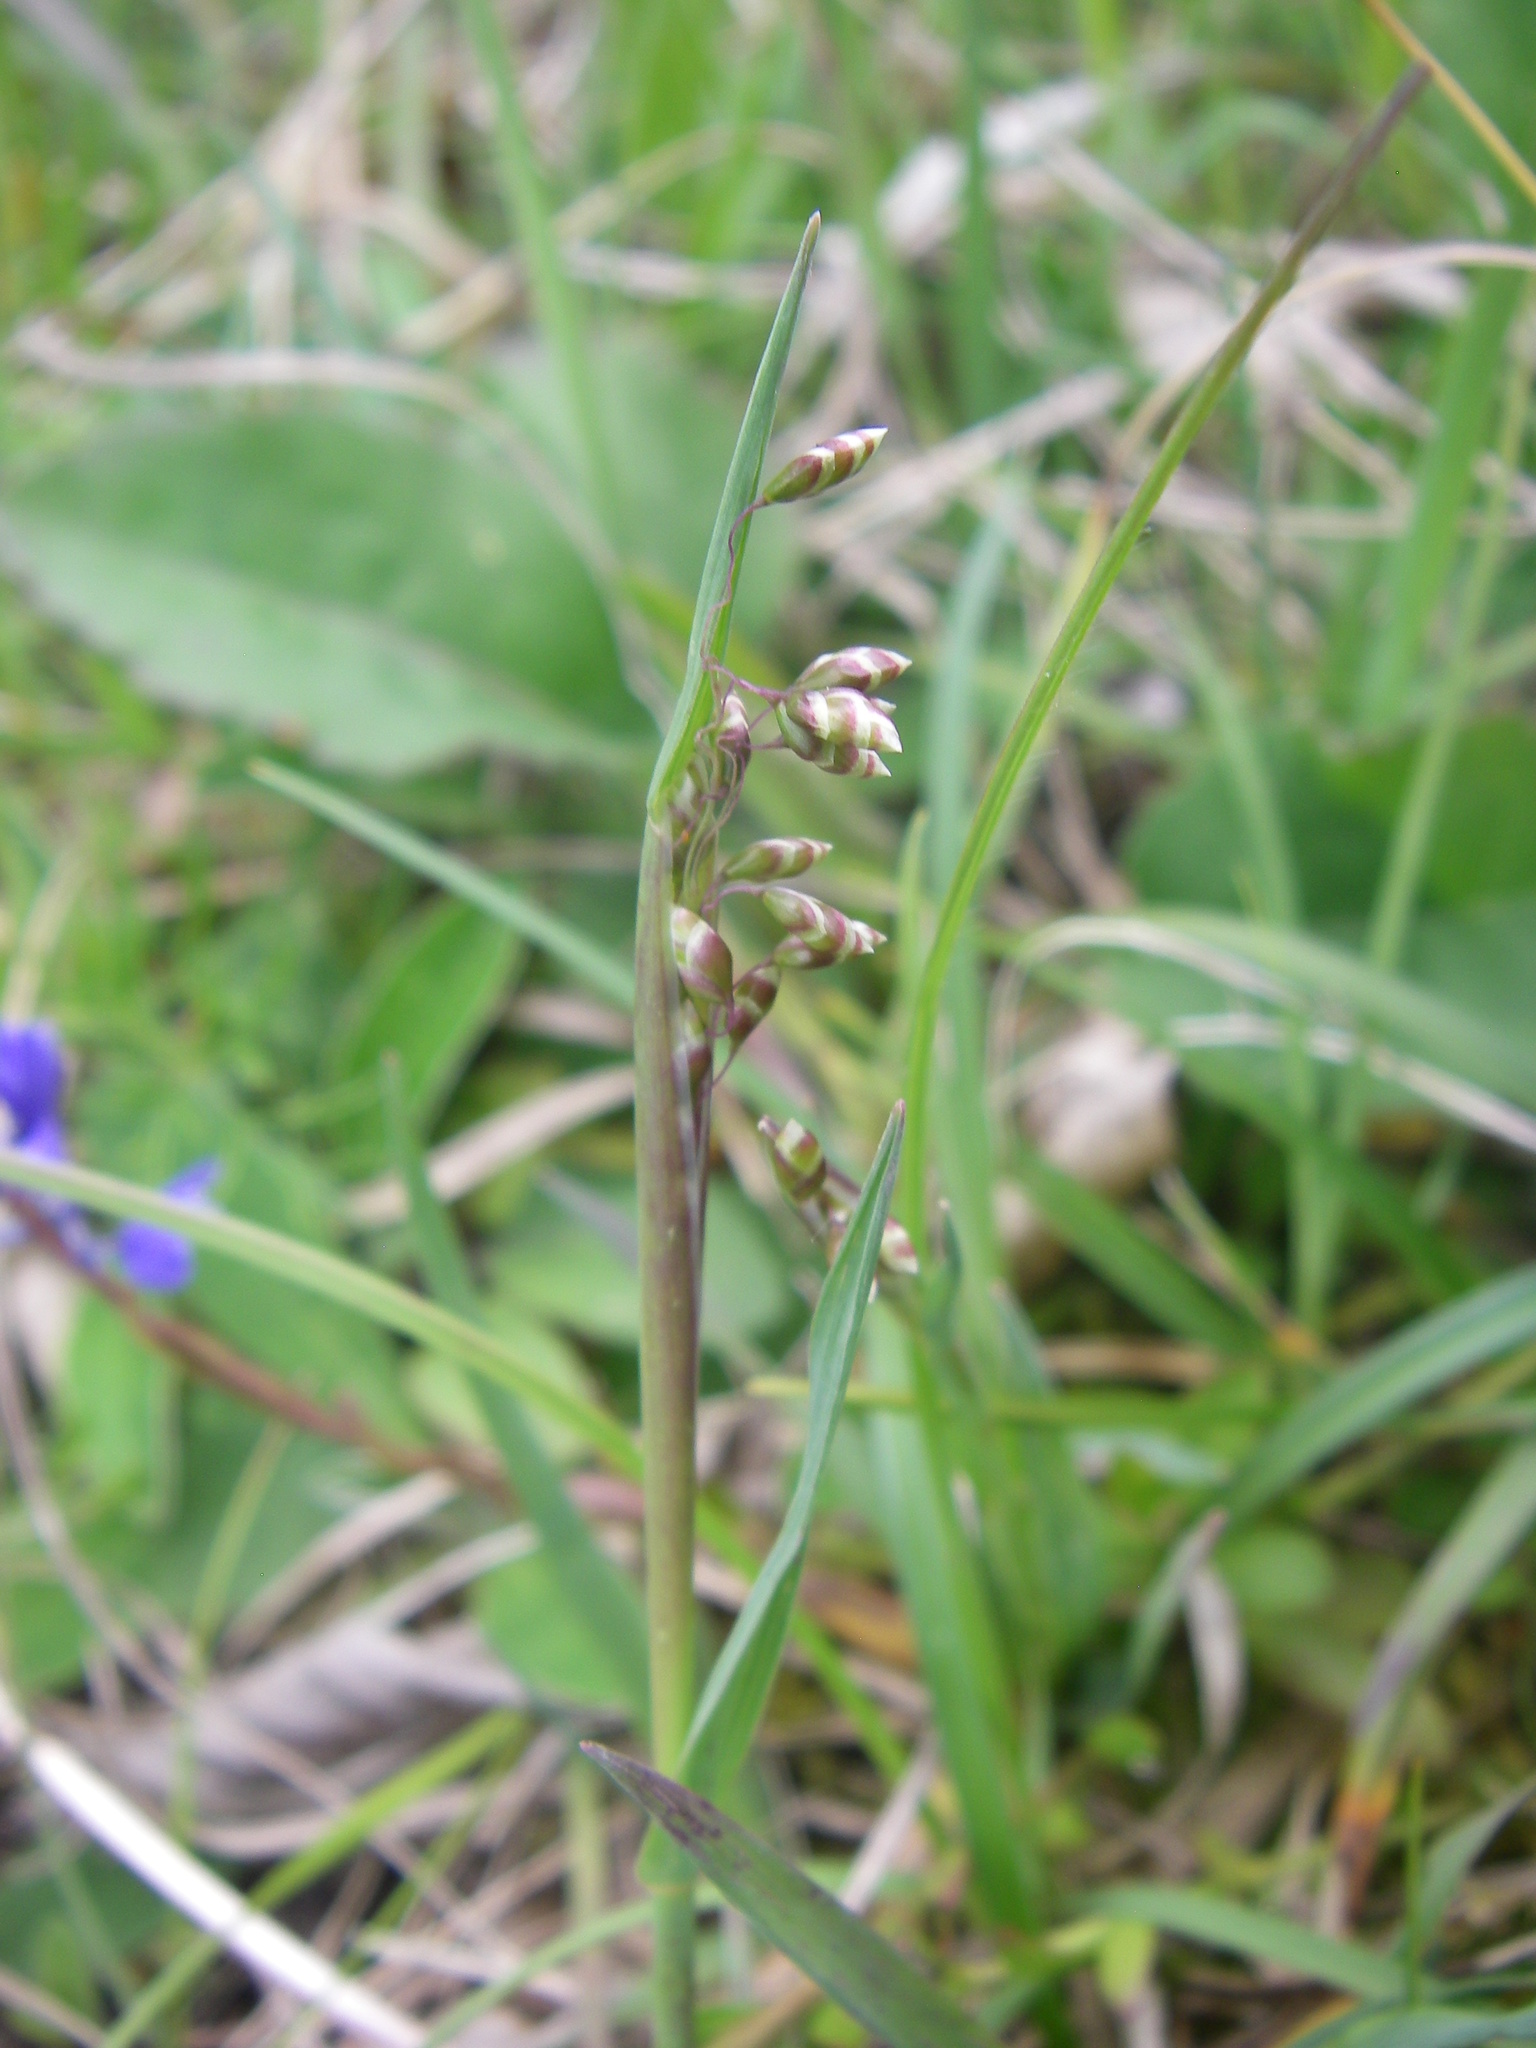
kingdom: Plantae
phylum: Tracheophyta
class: Liliopsida
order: Poales
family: Poaceae
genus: Briza
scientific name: Briza media
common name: Quaking grass
